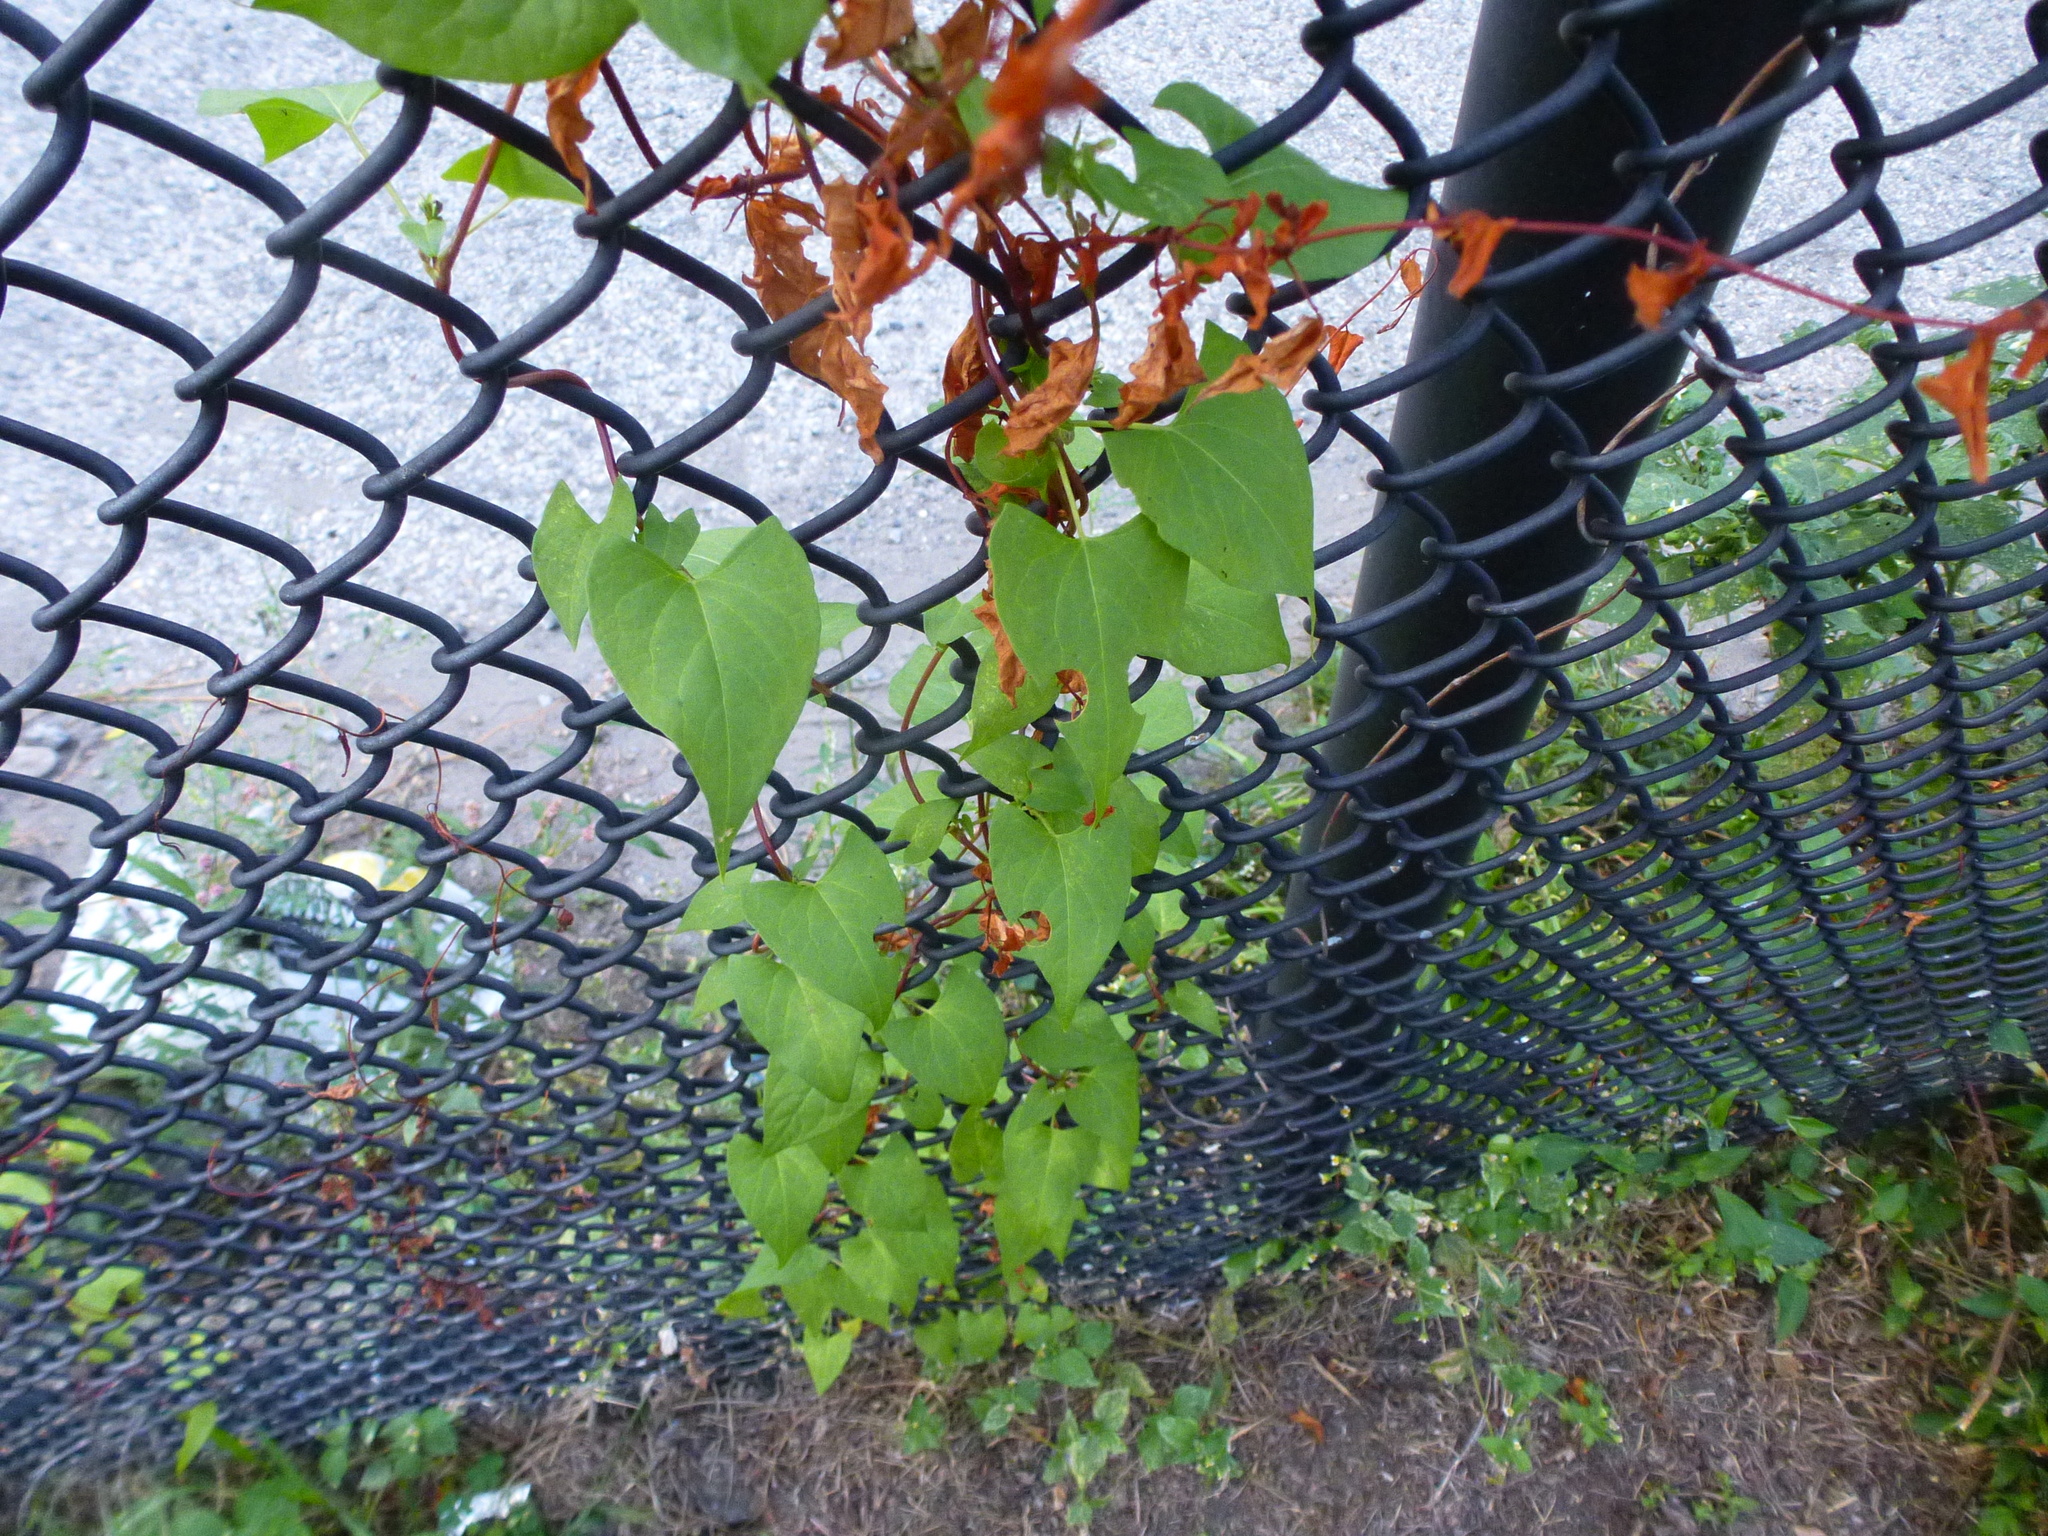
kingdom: Plantae
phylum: Tracheophyta
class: Magnoliopsida
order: Caryophyllales
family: Polygonaceae
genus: Fallopia
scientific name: Fallopia scandens
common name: Climbing false buckwheat
